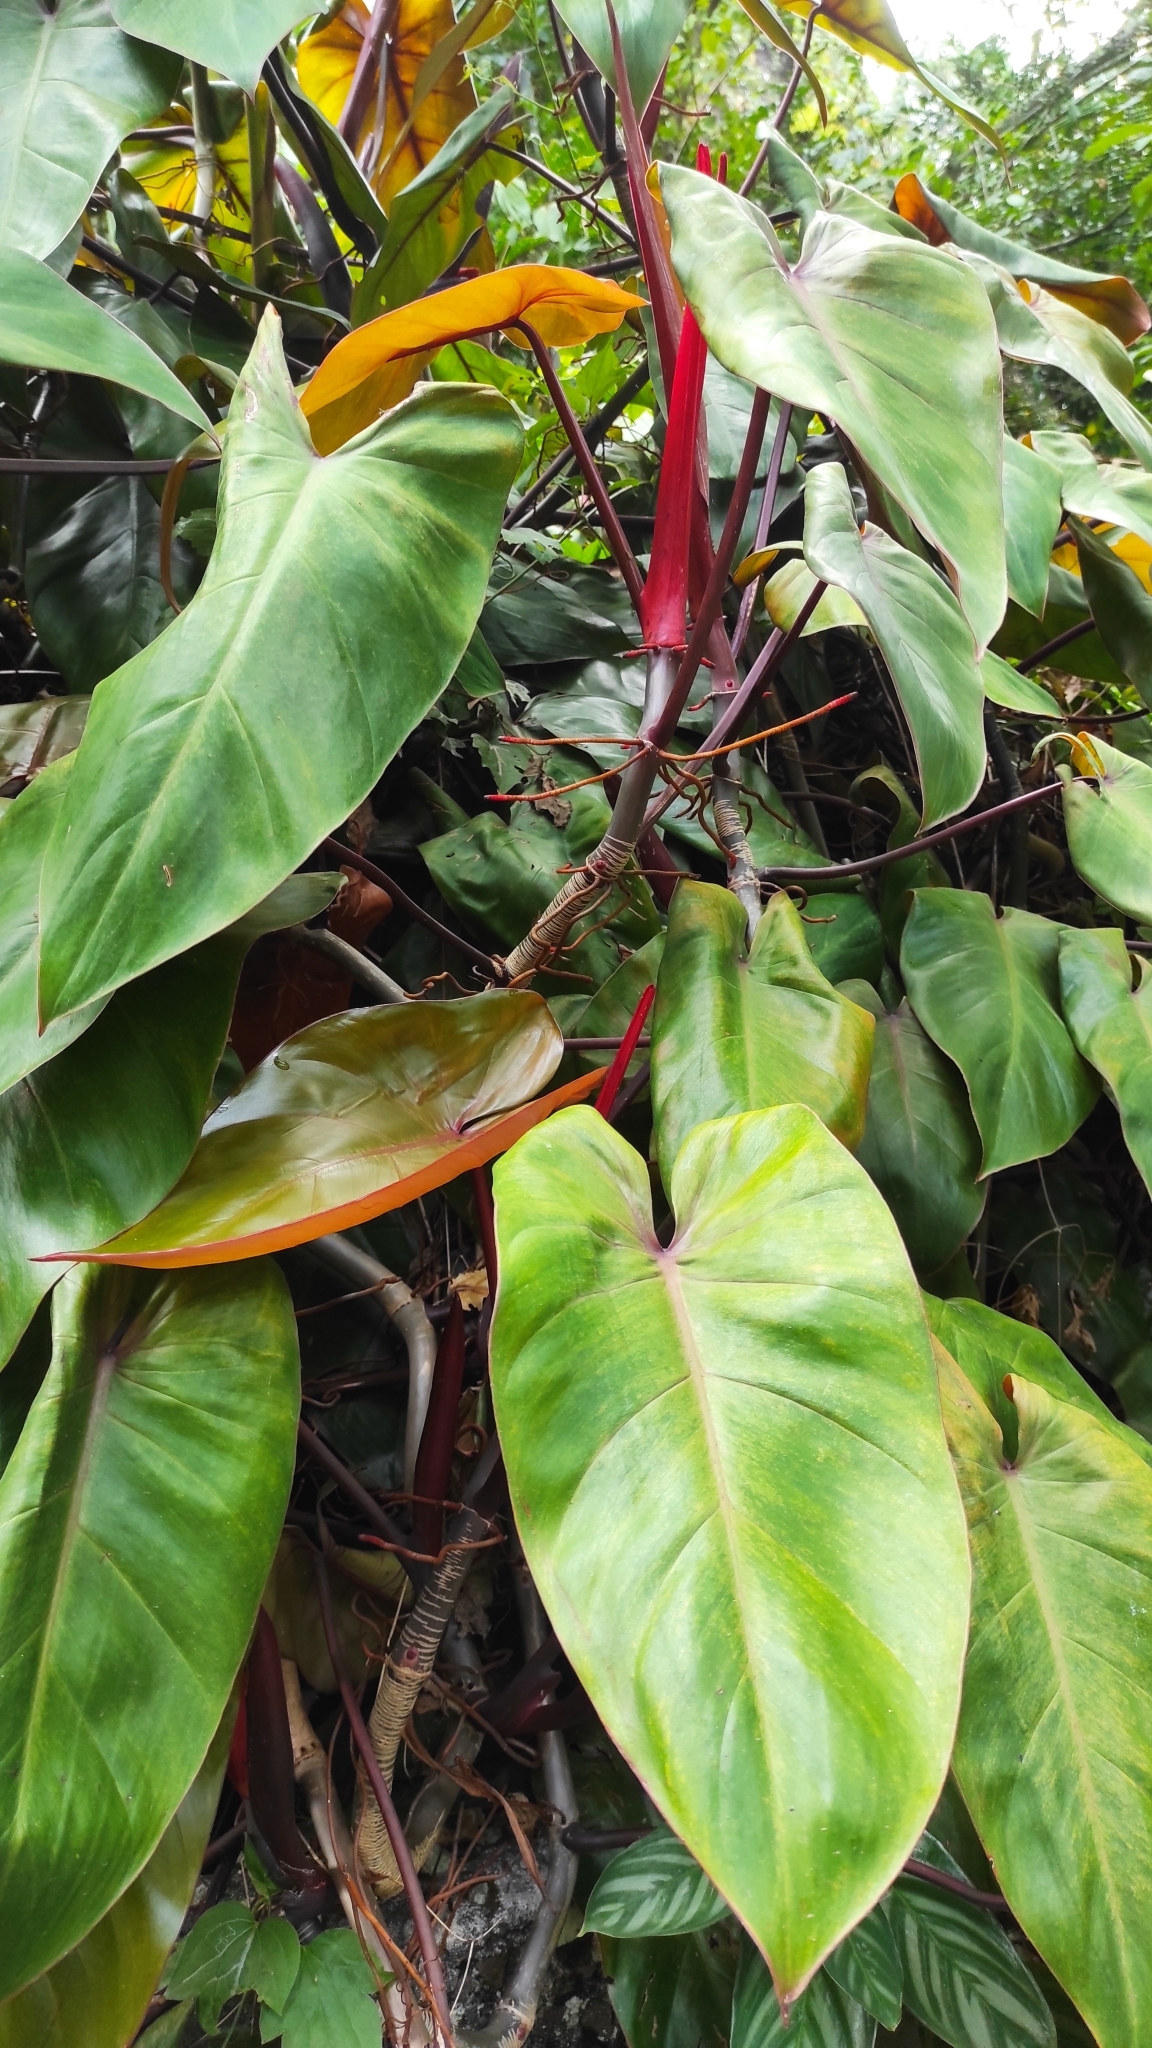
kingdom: Plantae
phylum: Tracheophyta
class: Liliopsida
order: Alismatales
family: Araceae
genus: Philodendron
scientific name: Philodendron erubescens
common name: Philodendron
